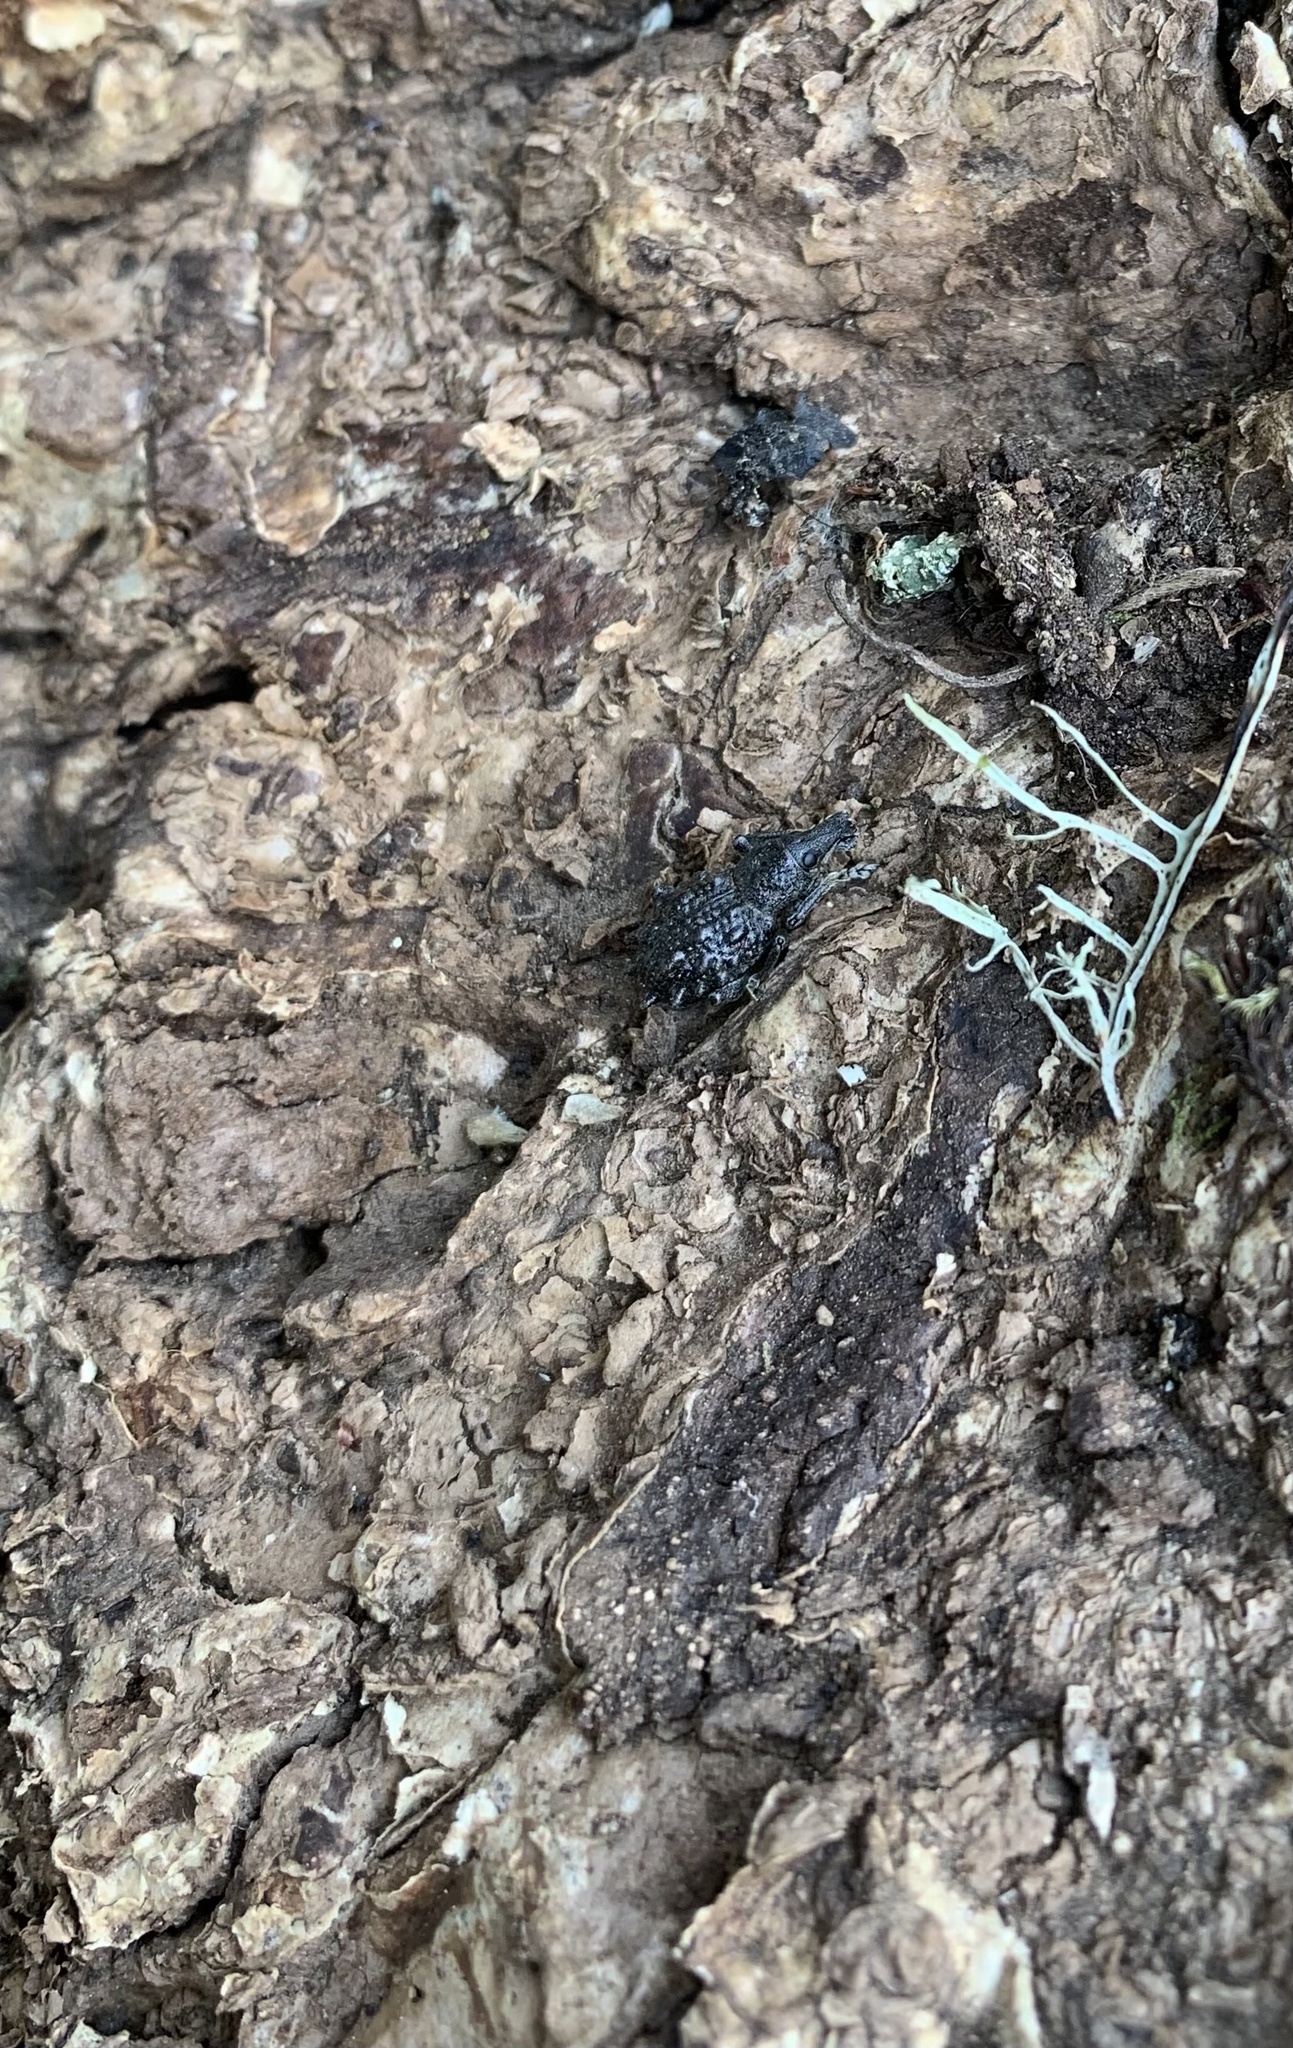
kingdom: Animalia
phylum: Arthropoda
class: Insecta
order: Coleoptera
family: Curculionidae
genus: Megalometis
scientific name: Megalometis spiniferus
